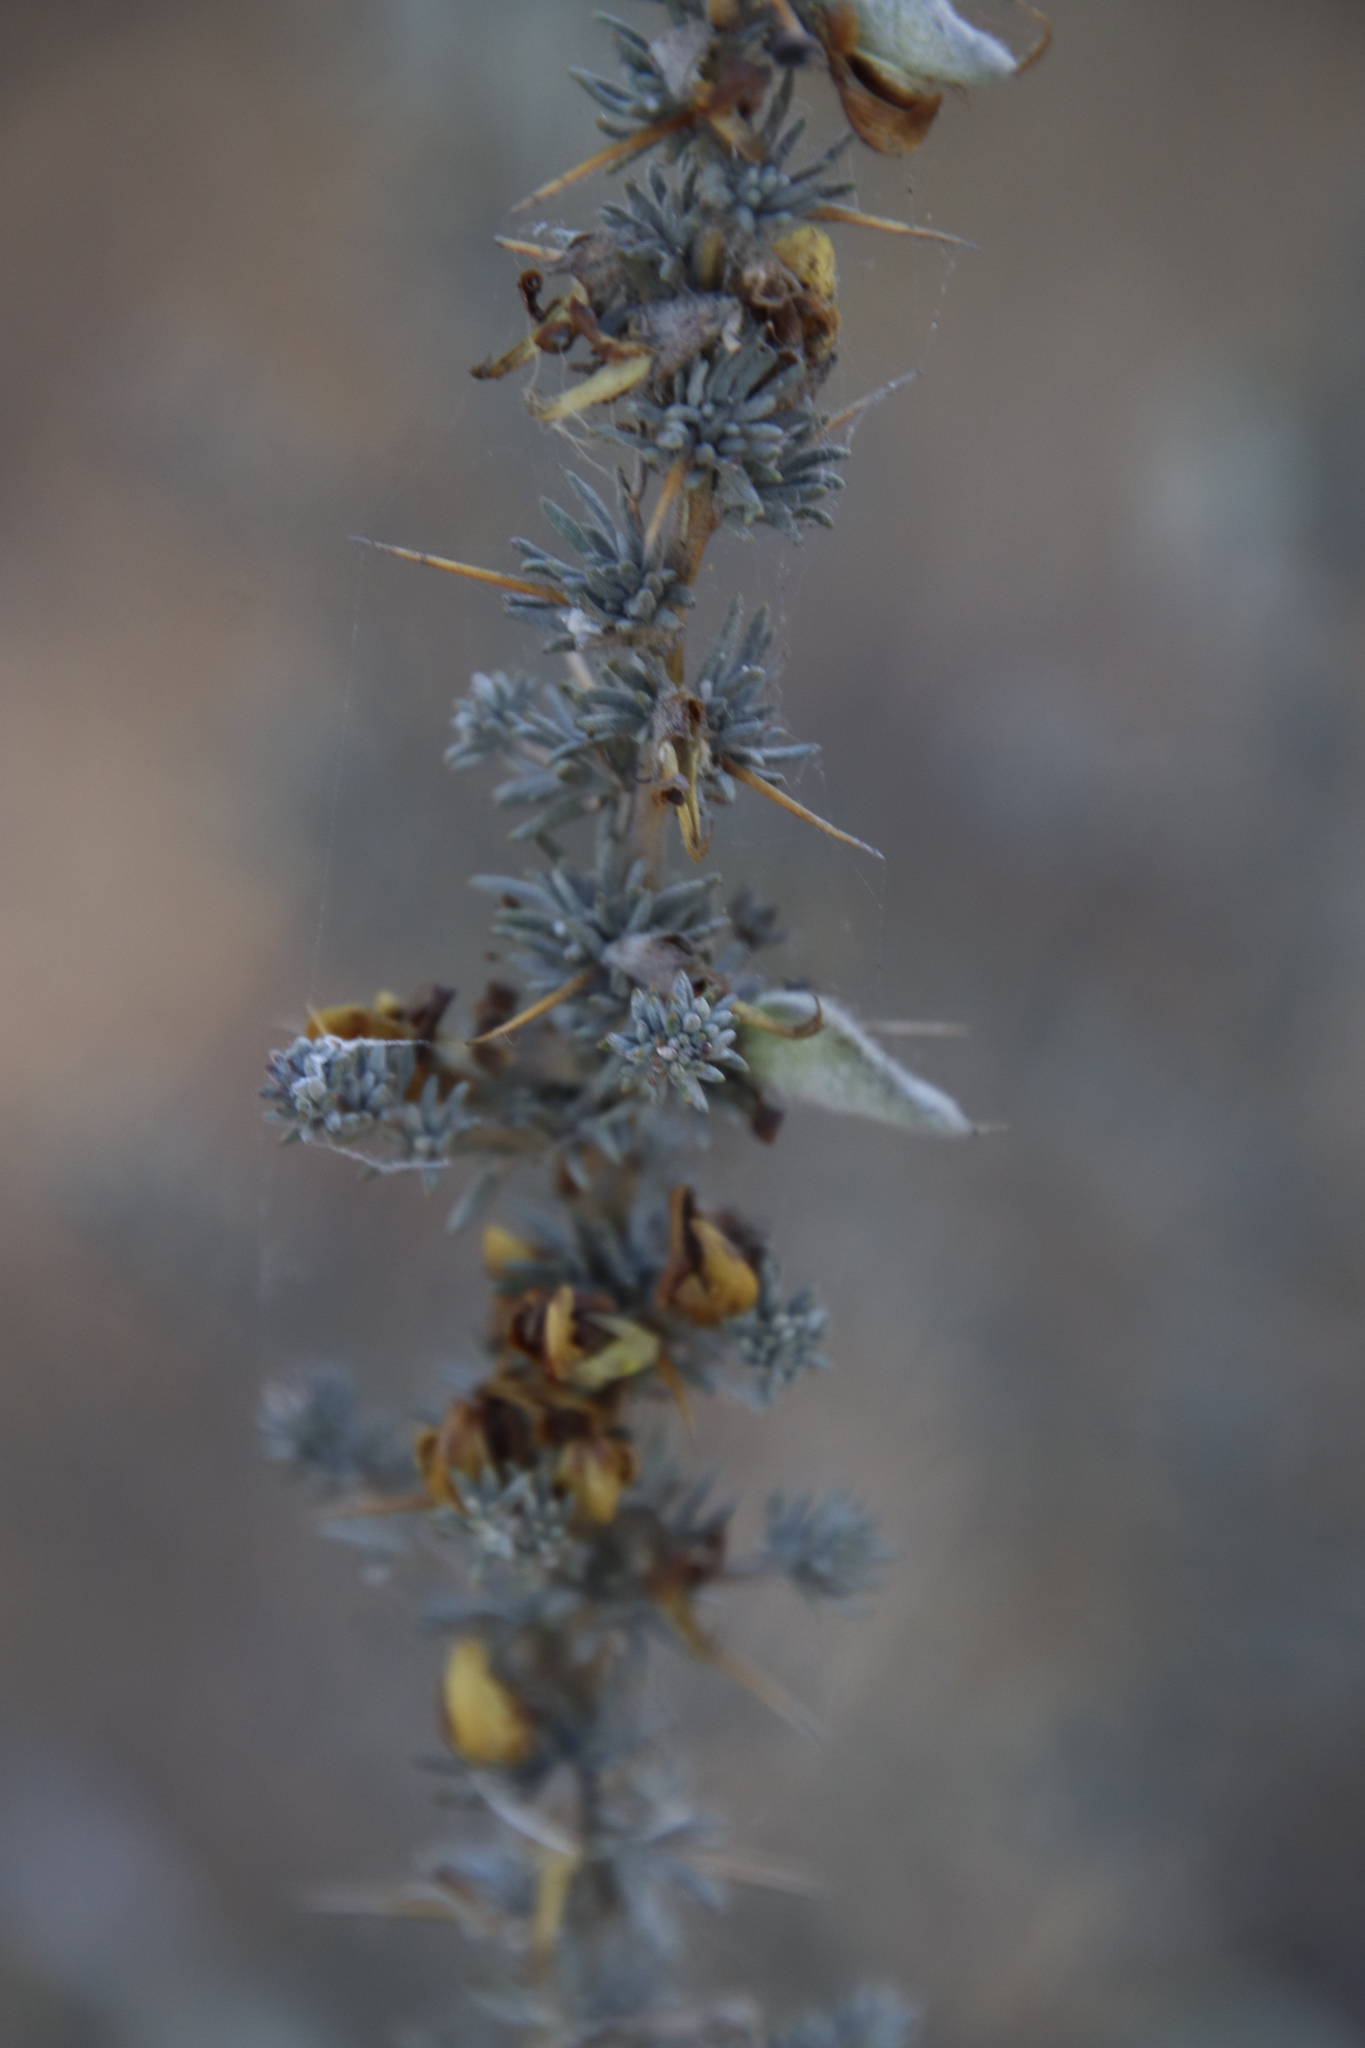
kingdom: Plantae
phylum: Tracheophyta
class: Magnoliopsida
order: Fabales
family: Fabaceae
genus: Aspalathus
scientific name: Aspalathus acanthophylla
